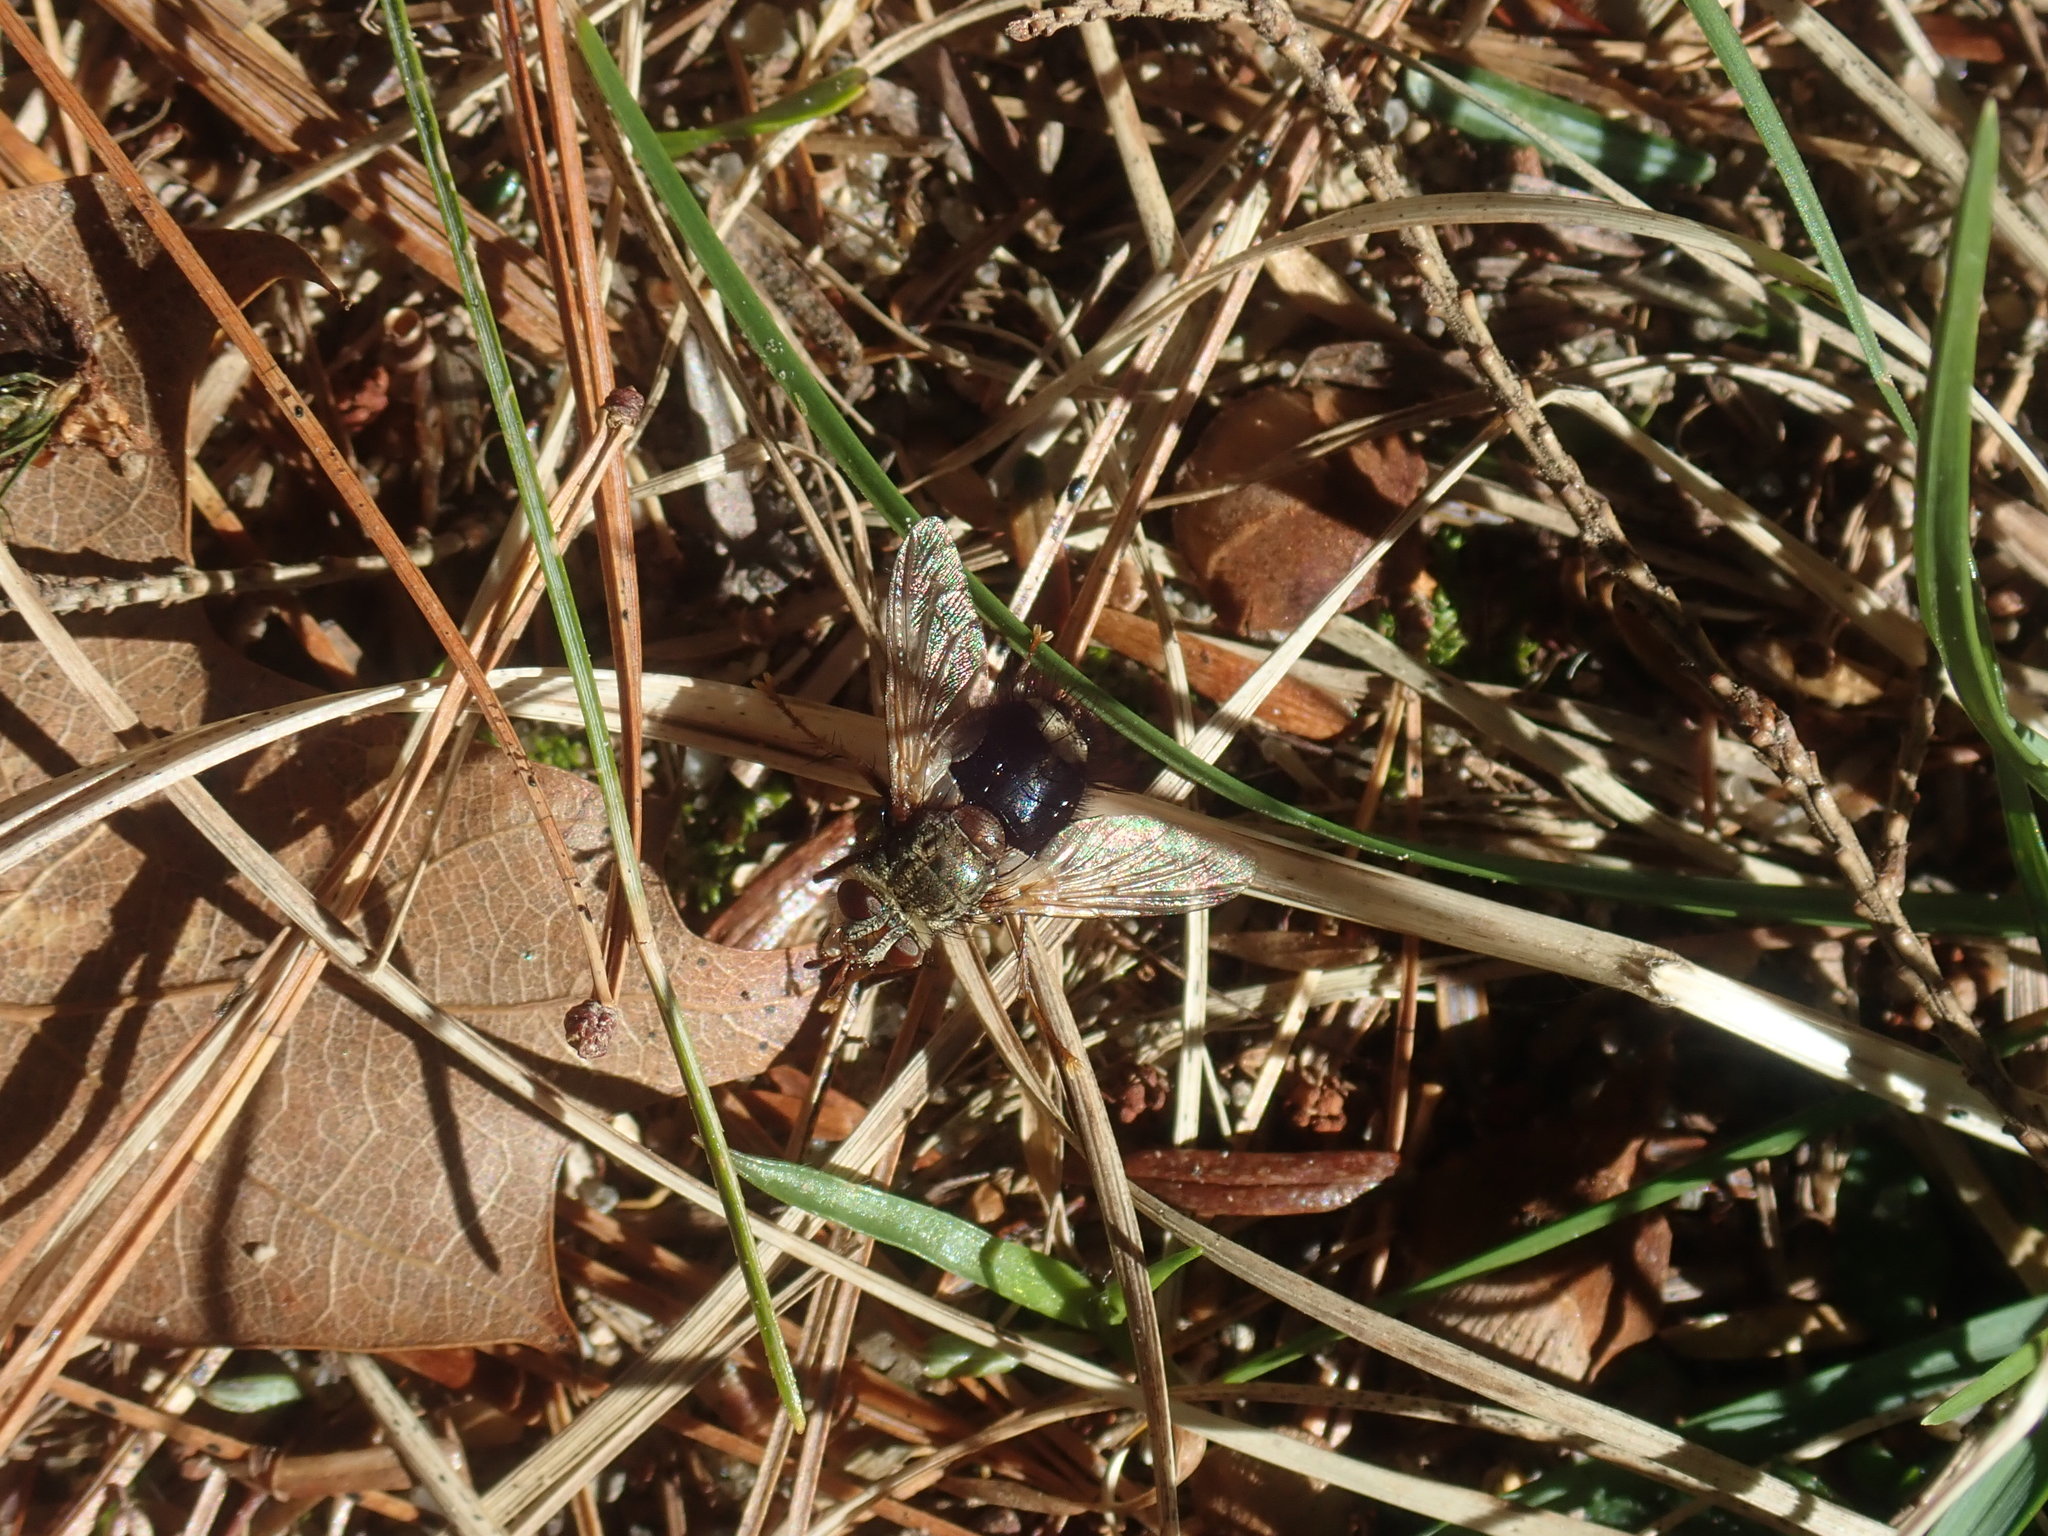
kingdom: Animalia
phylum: Arthropoda
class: Insecta
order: Diptera
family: Tachinidae
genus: Epalpus
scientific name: Epalpus signifer
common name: Early tachinid fly
